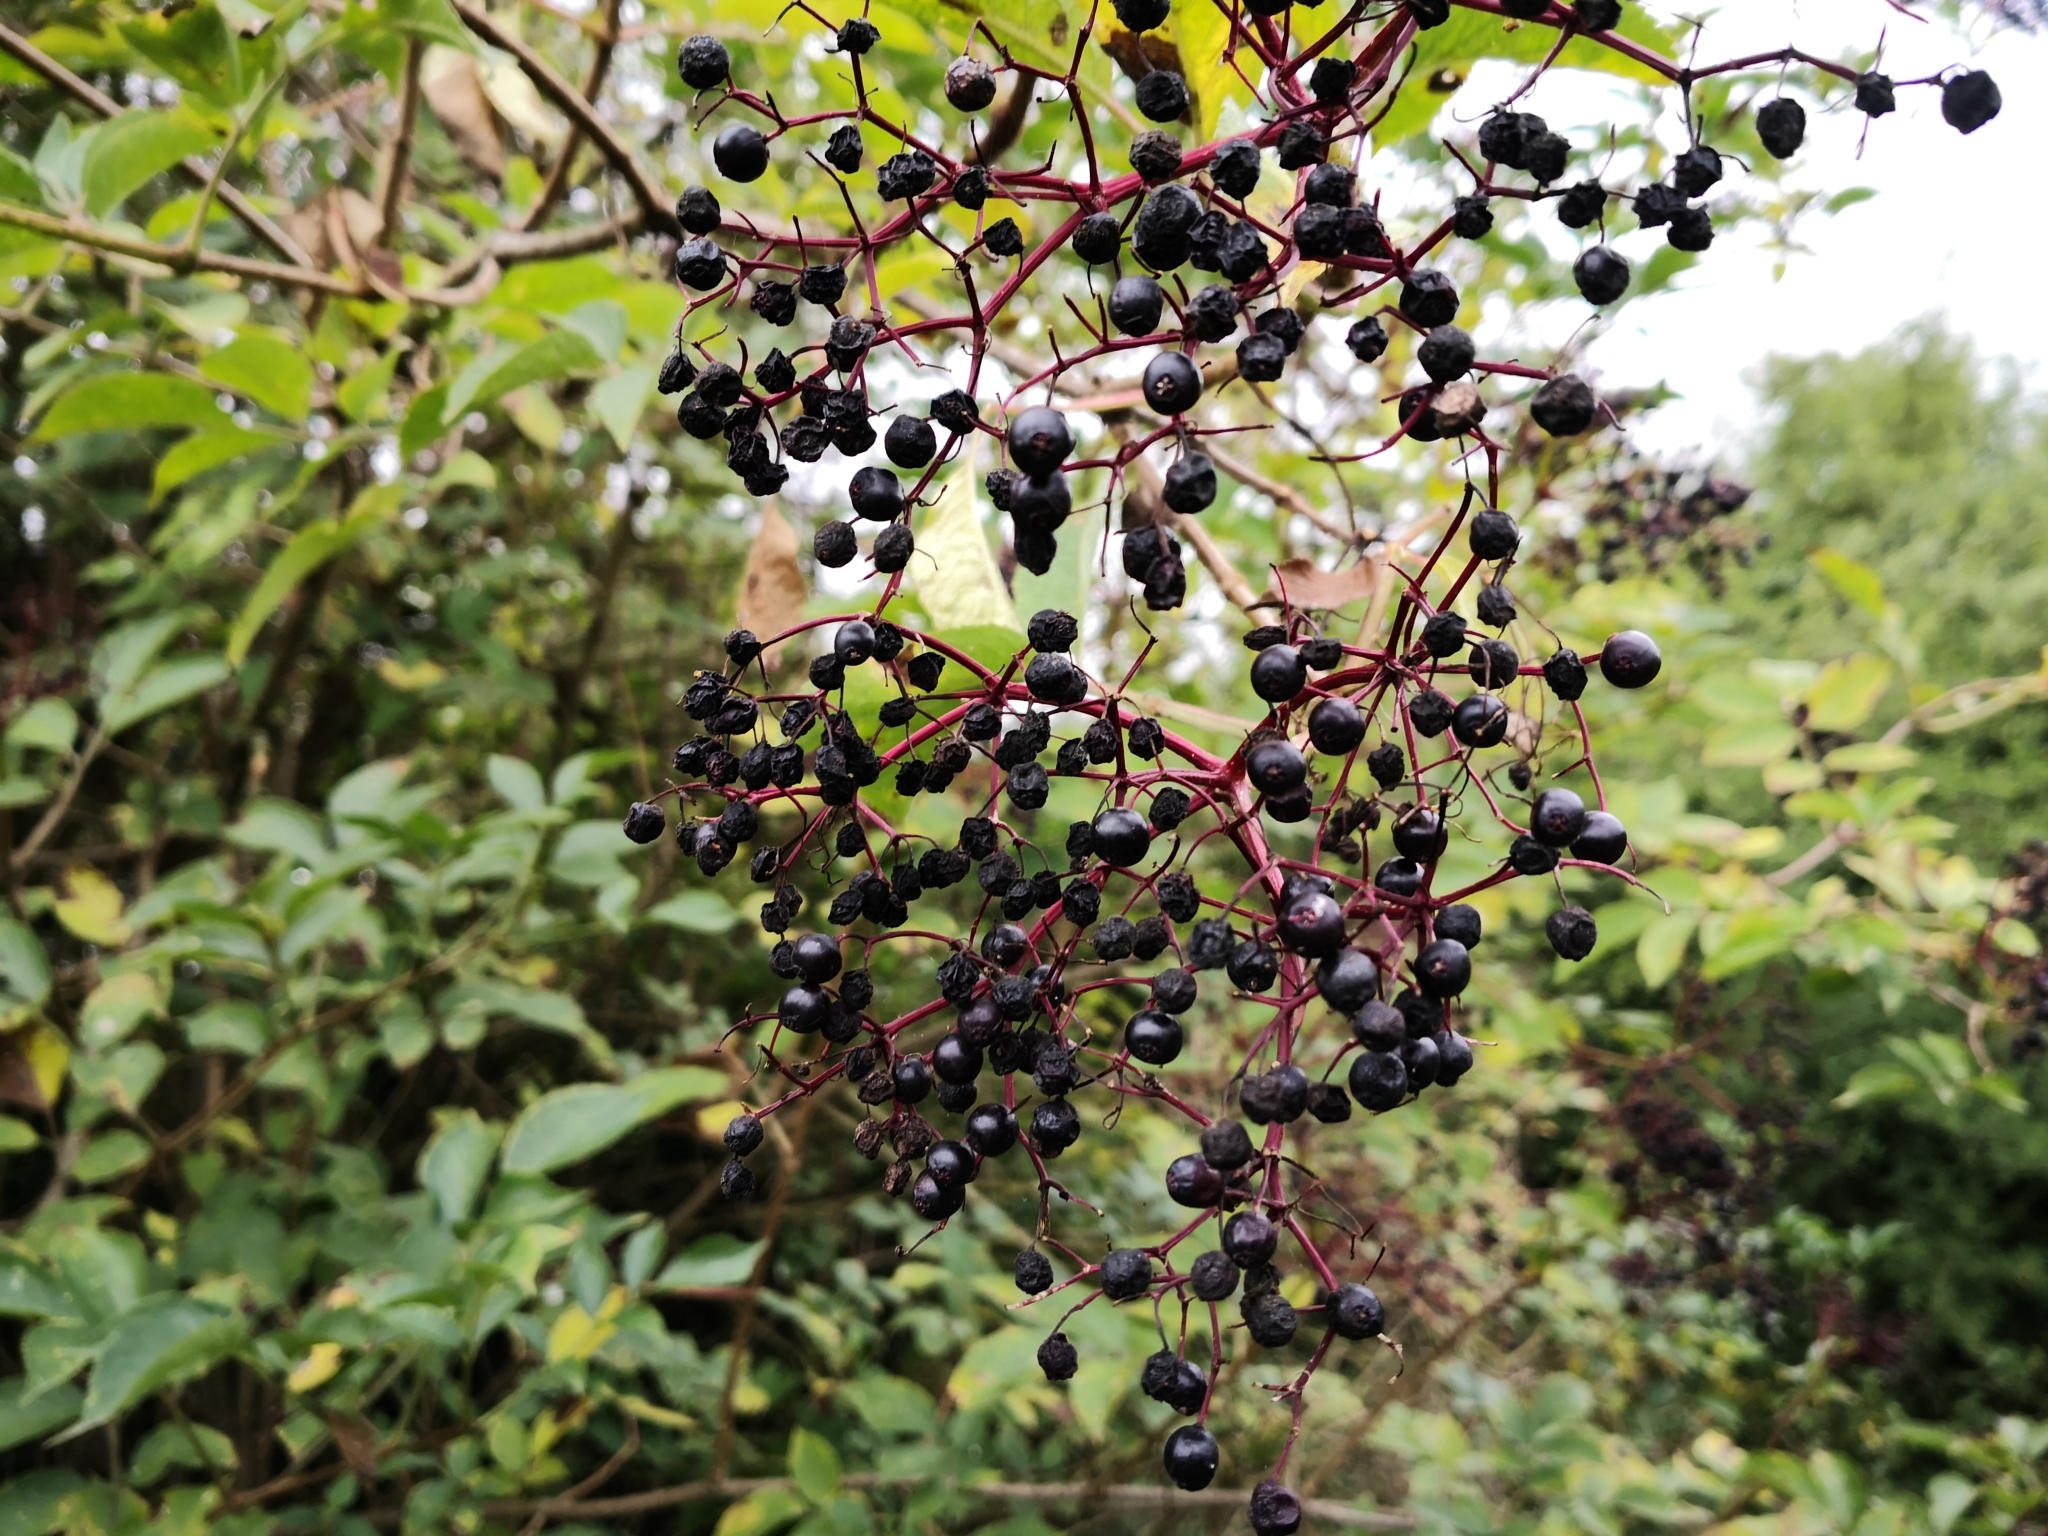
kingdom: Plantae
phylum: Tracheophyta
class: Magnoliopsida
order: Dipsacales
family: Viburnaceae
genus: Sambucus
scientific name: Sambucus nigra
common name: Elder
